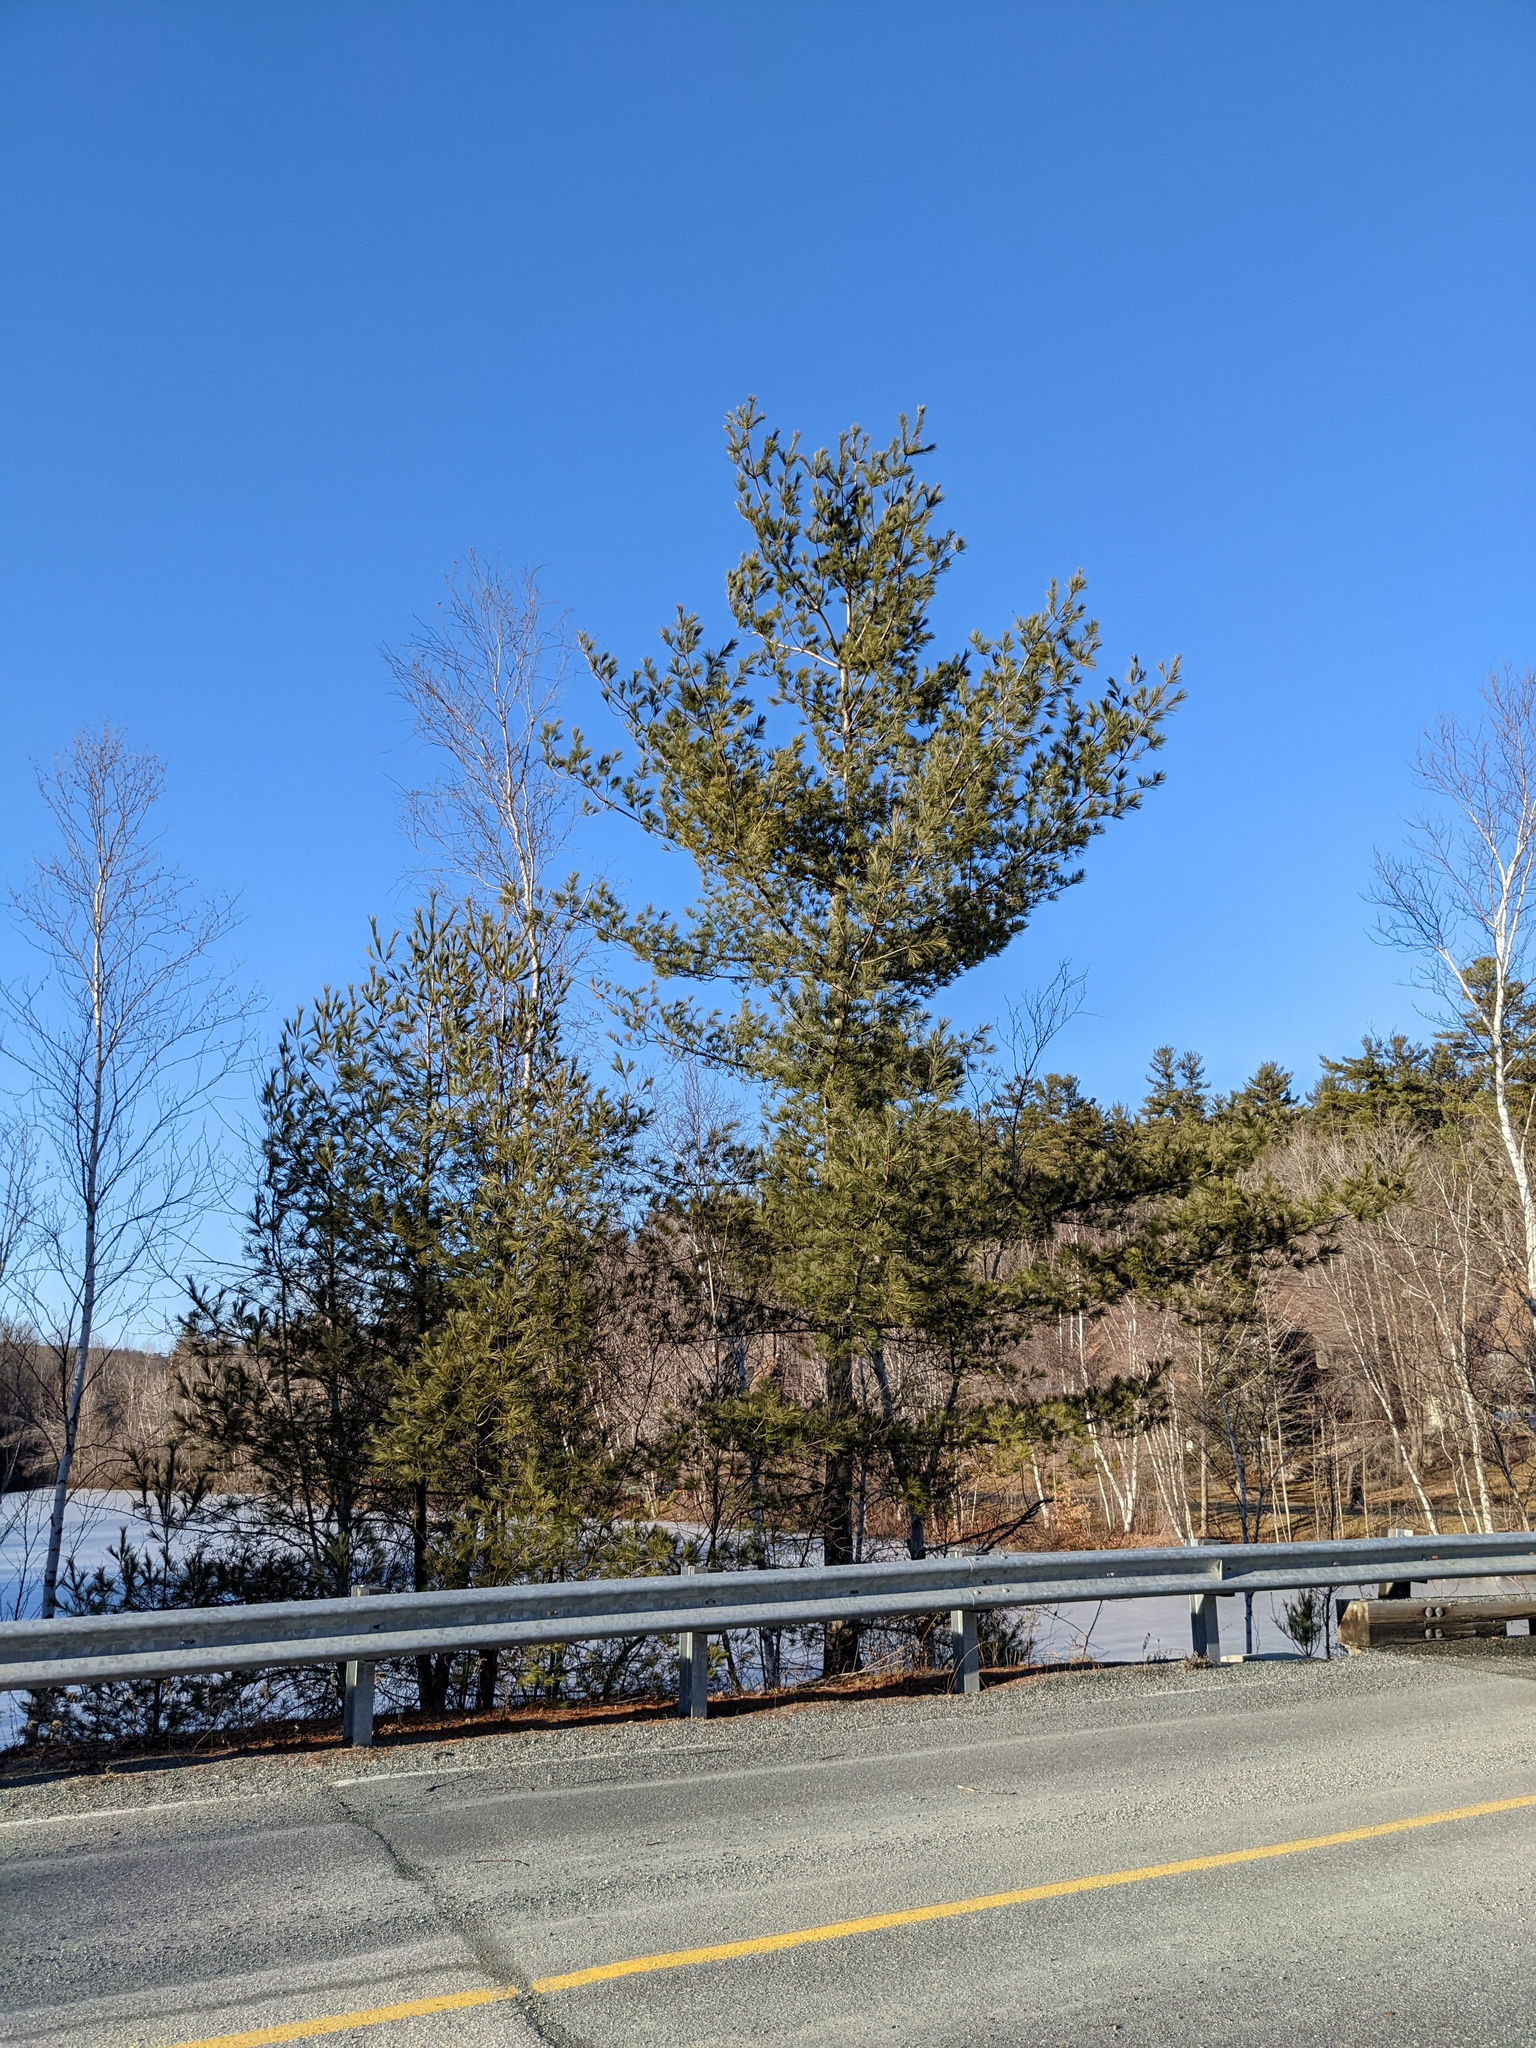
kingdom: Plantae
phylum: Tracheophyta
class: Pinopsida
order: Pinales
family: Pinaceae
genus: Pinus
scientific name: Pinus strobus
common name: Weymouth pine
